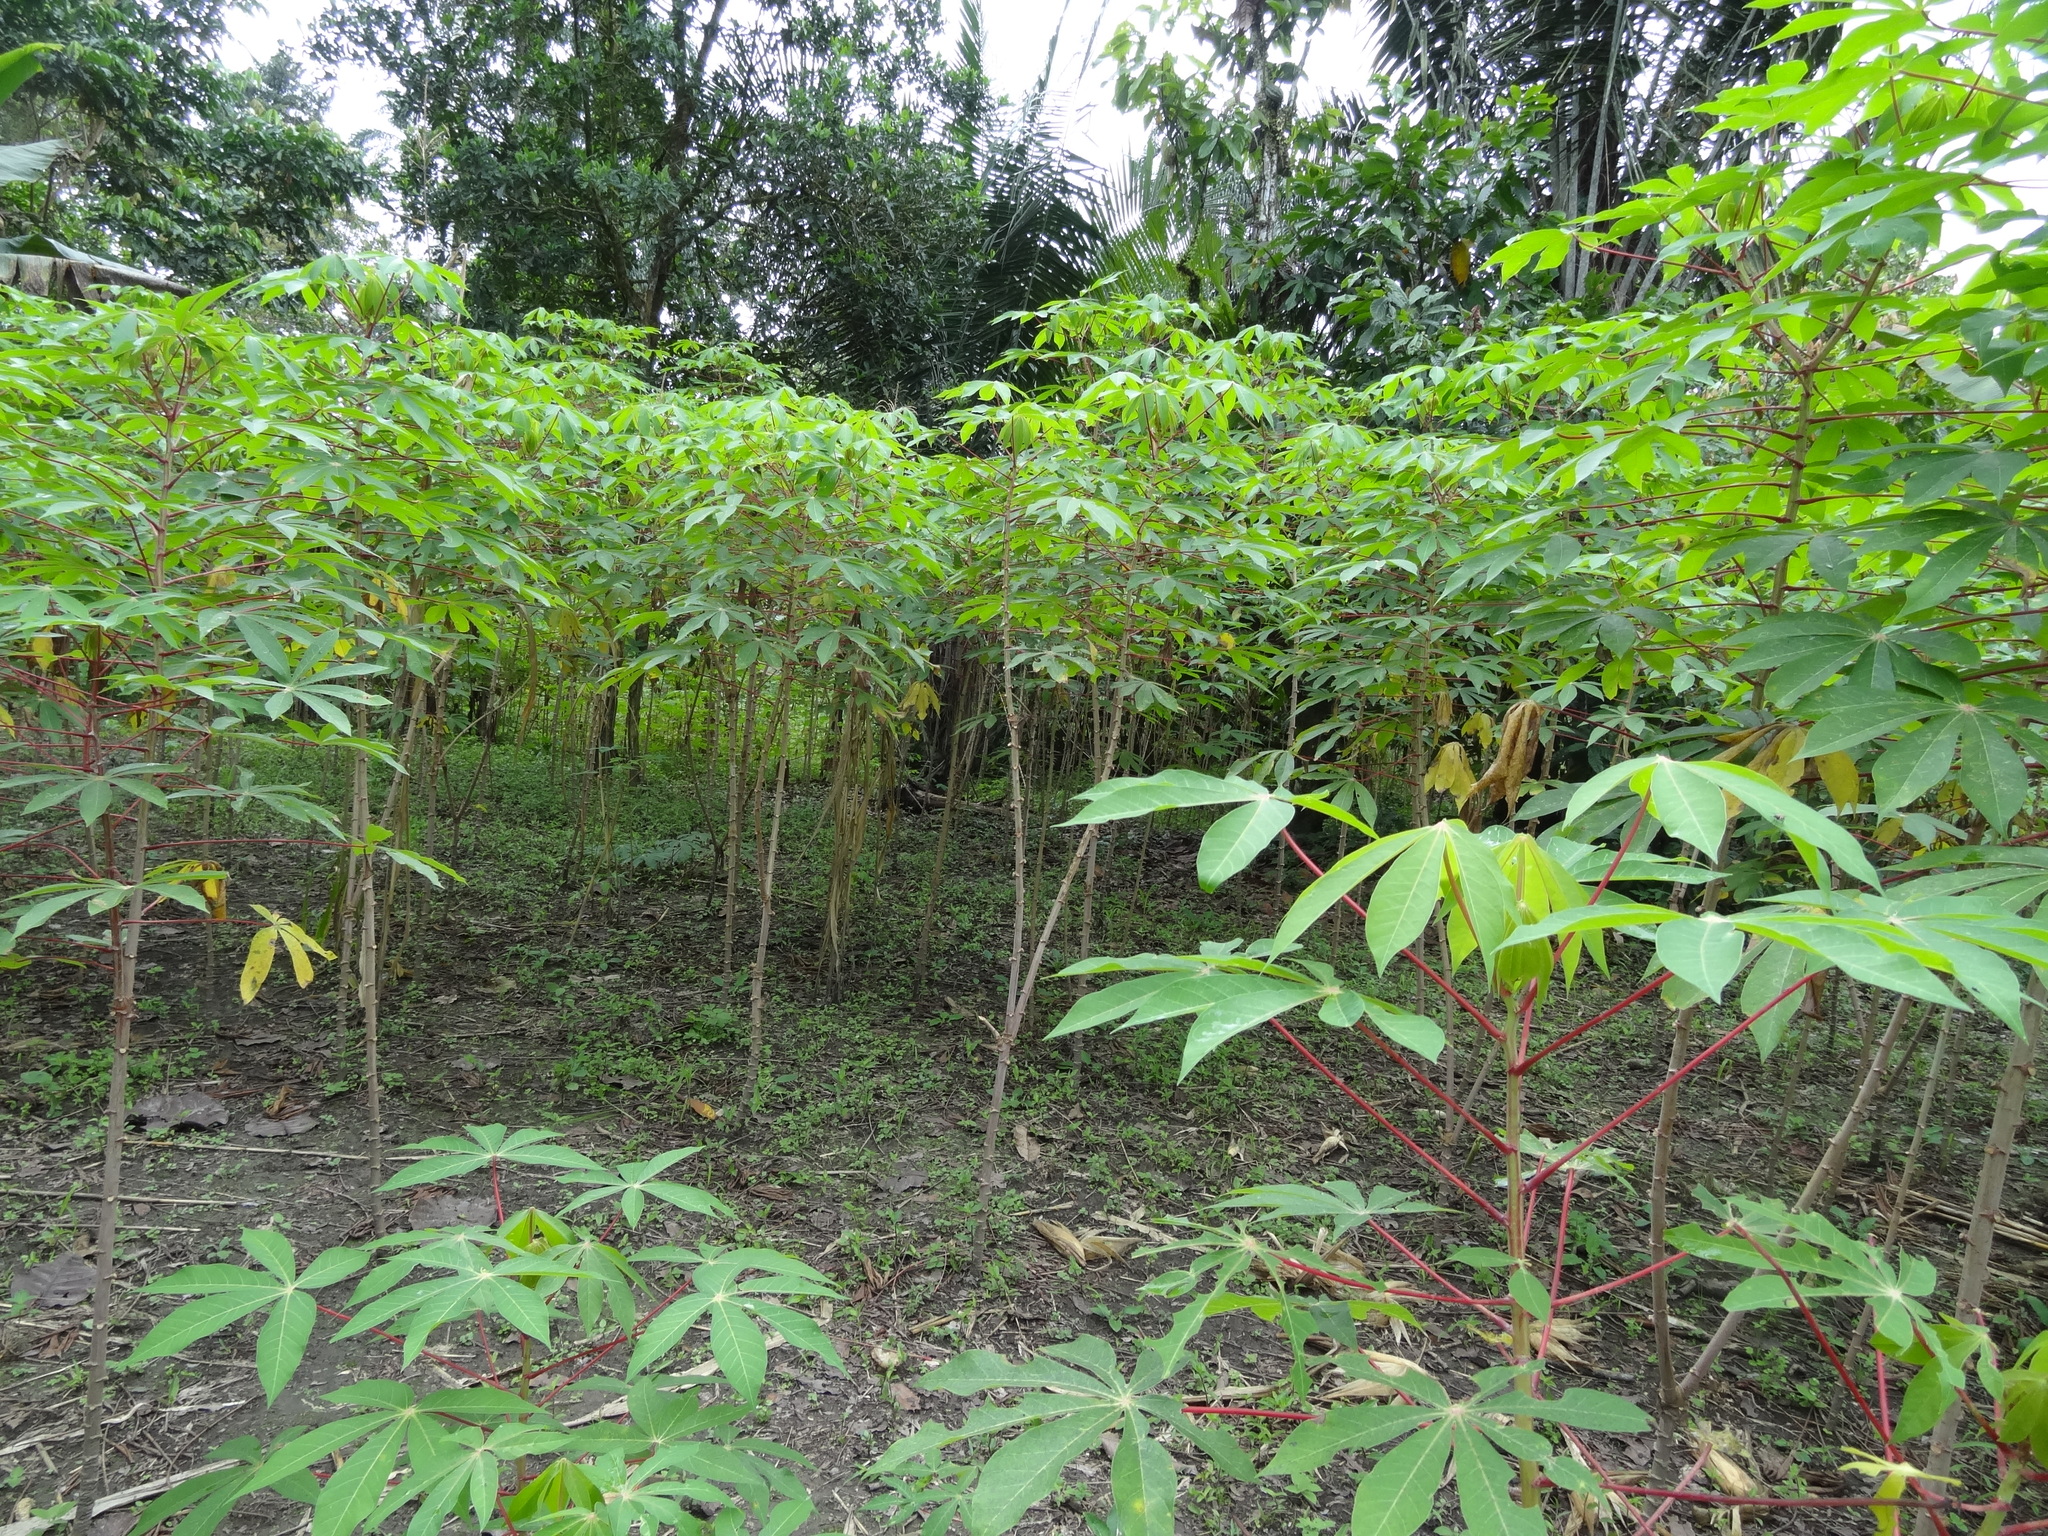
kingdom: Plantae
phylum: Tracheophyta
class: Magnoliopsida
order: Malpighiales
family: Euphorbiaceae
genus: Manihot
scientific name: Manihot esculenta
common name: Cassava
